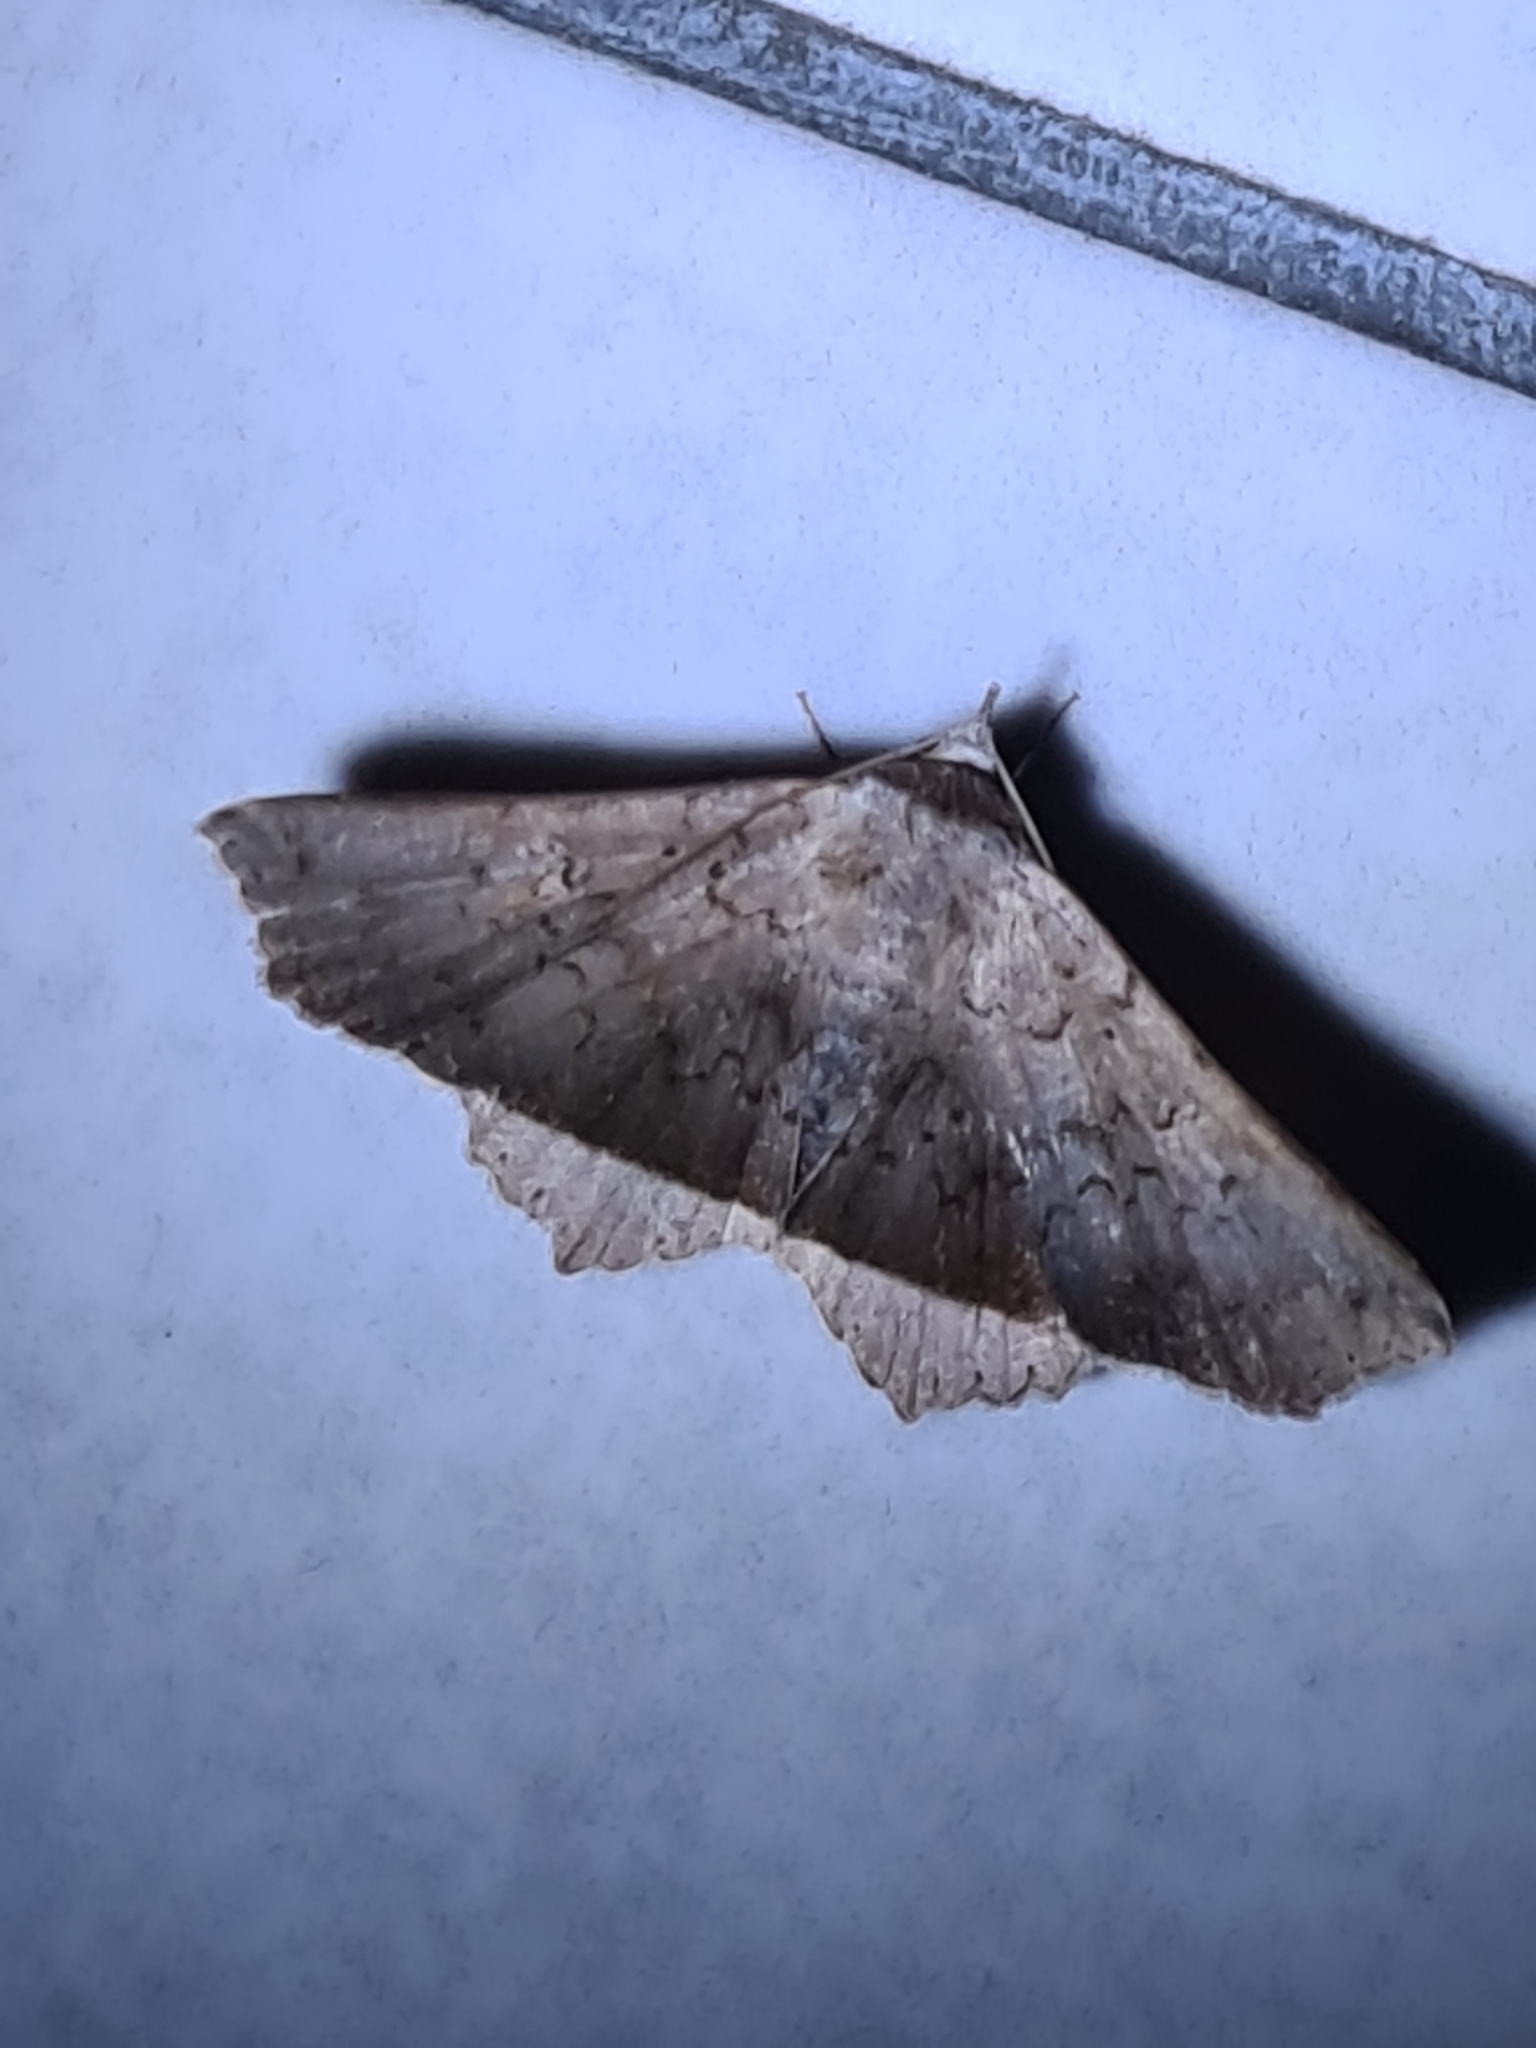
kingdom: Animalia
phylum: Arthropoda
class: Insecta
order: Lepidoptera
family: Erebidae
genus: Bendis
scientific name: Bendis aemylia
